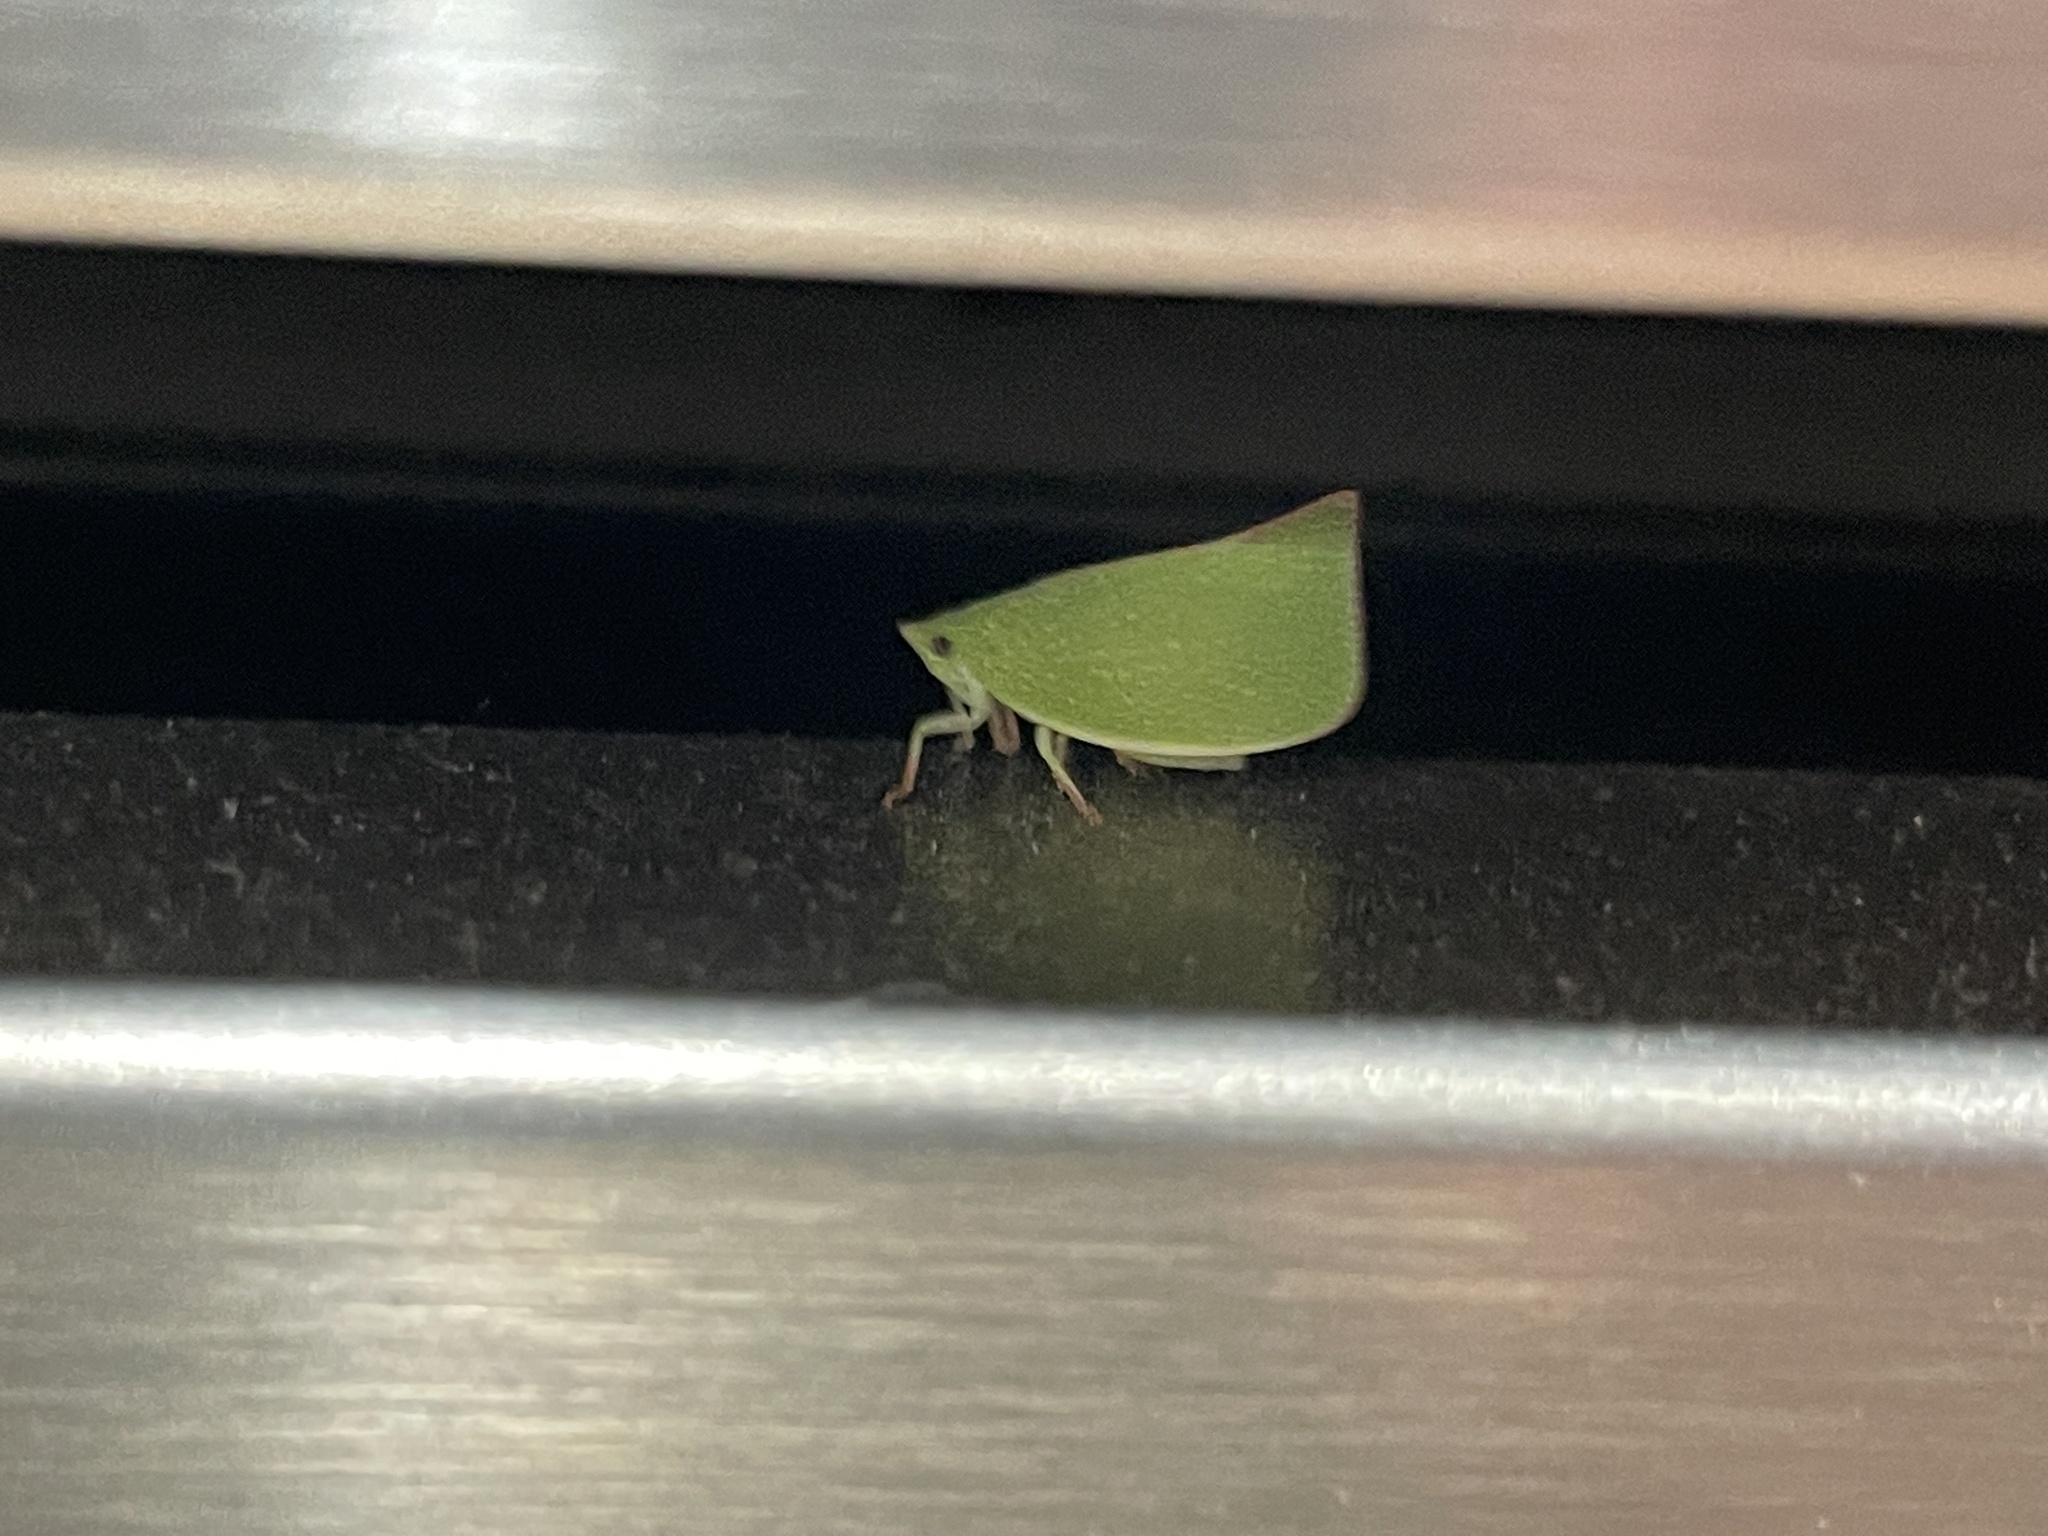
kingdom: Animalia
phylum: Arthropoda
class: Insecta
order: Hemiptera
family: Flatidae
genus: Siphanta
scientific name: Siphanta acuta
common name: Torpedo bug
